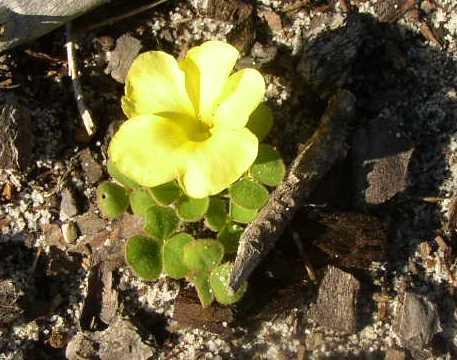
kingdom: Plantae
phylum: Tracheophyta
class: Magnoliopsida
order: Oxalidales
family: Oxalidaceae
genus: Oxalis
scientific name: Oxalis luteola
